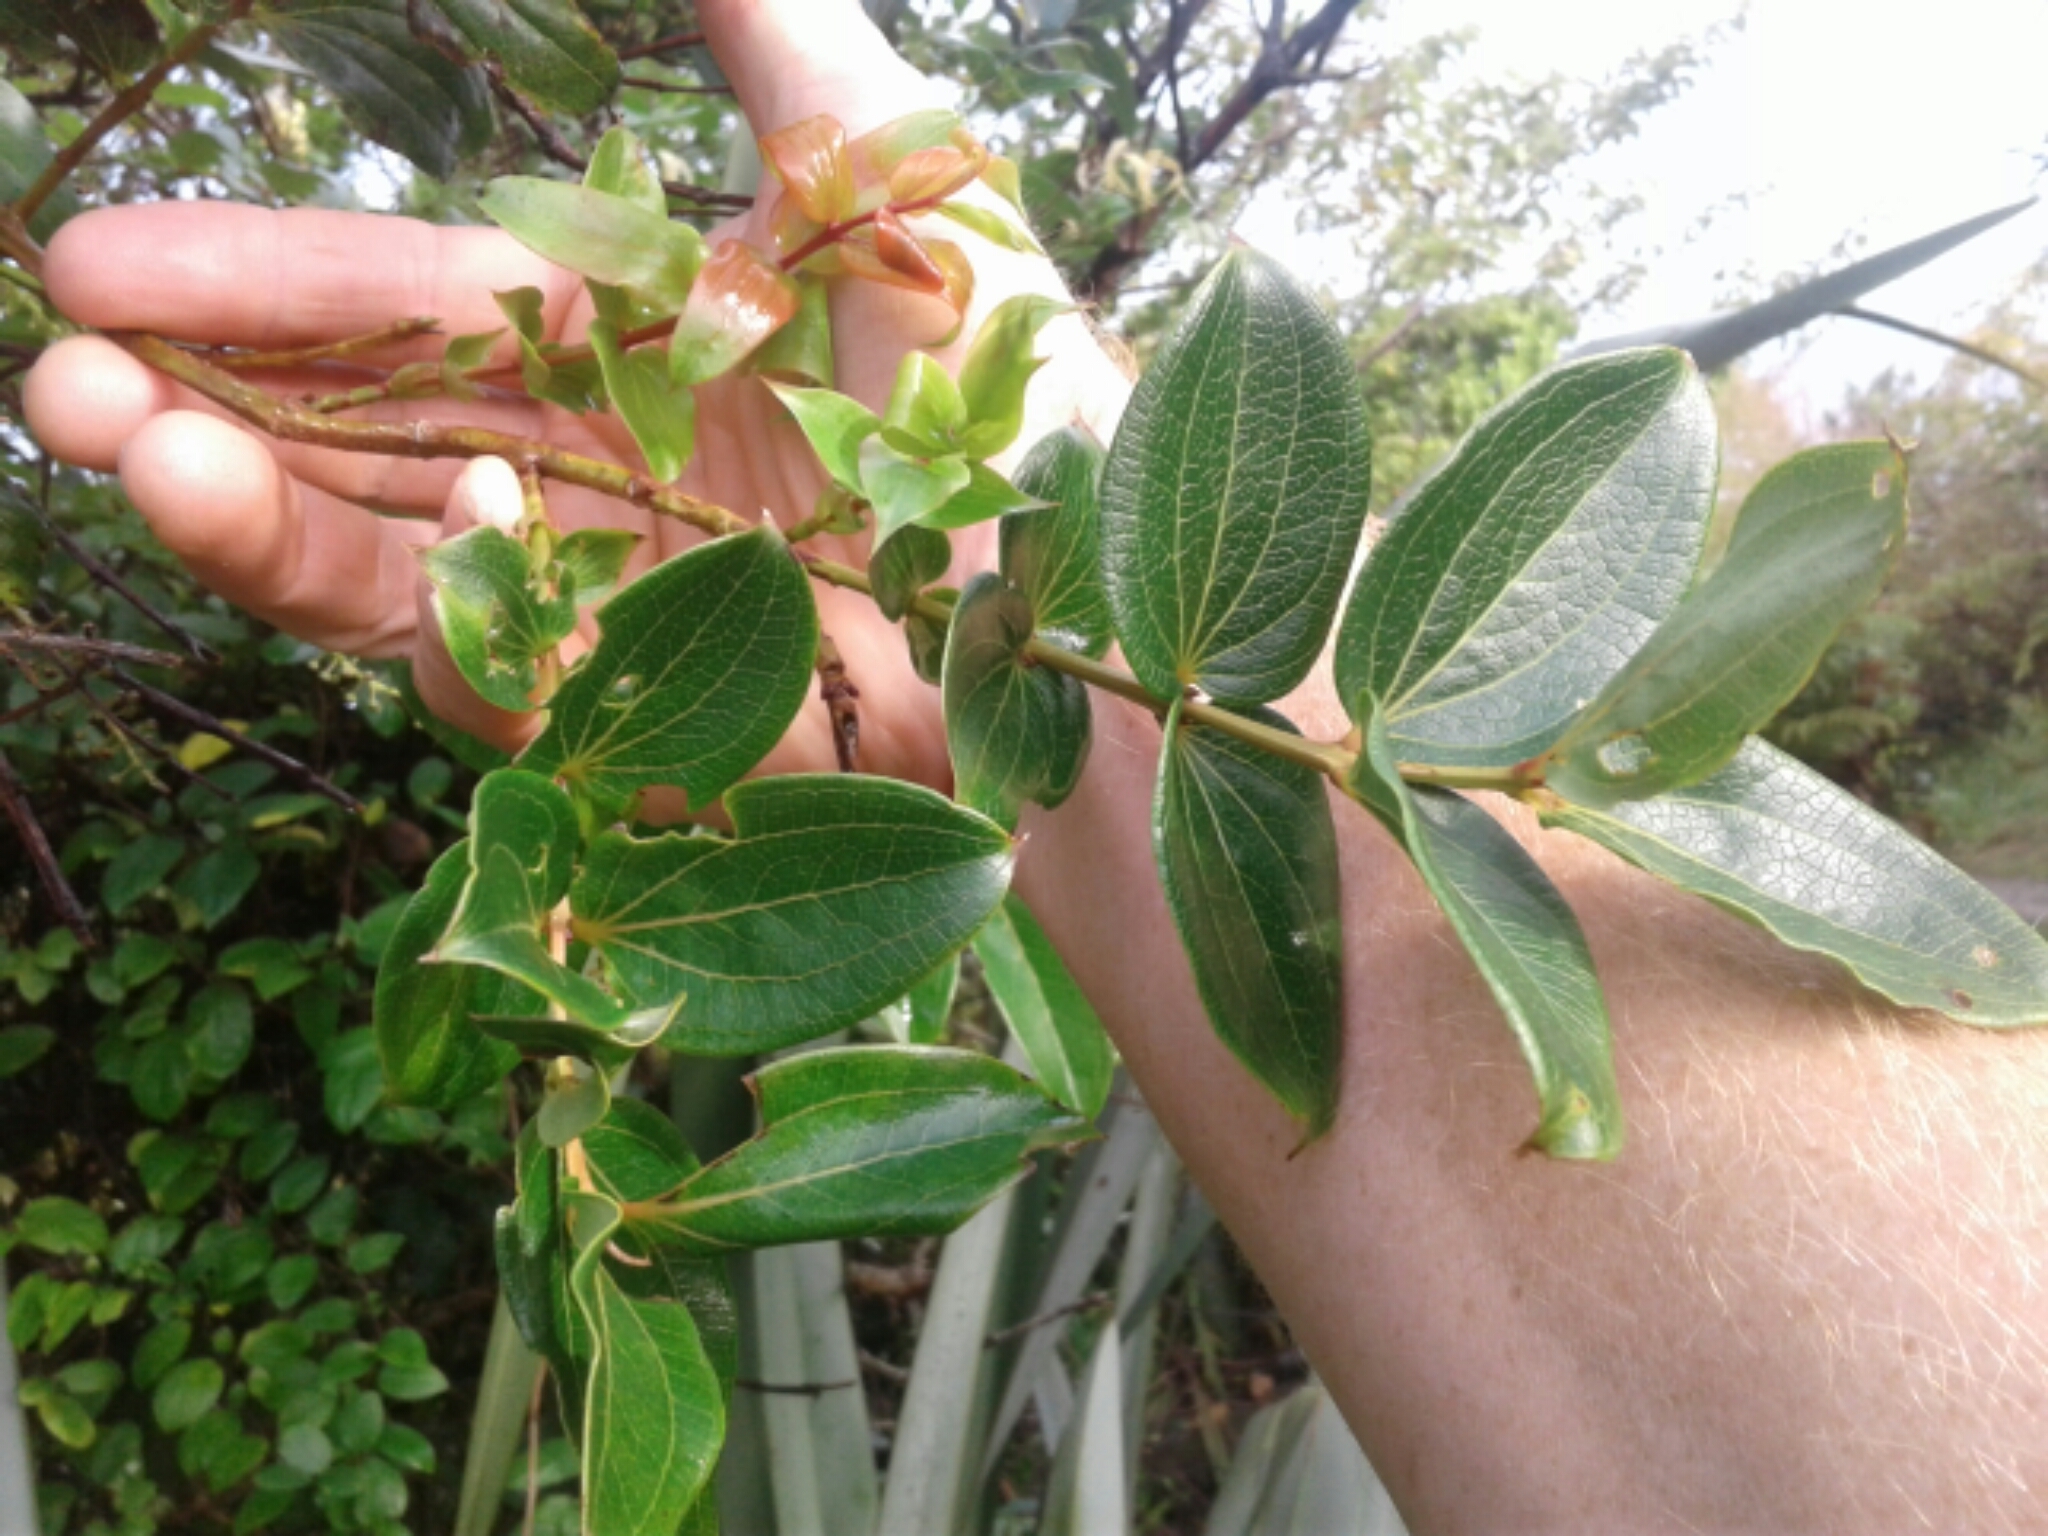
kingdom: Plantae
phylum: Tracheophyta
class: Magnoliopsida
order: Cucurbitales
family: Coriariaceae
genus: Coriaria
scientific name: Coriaria arborea
